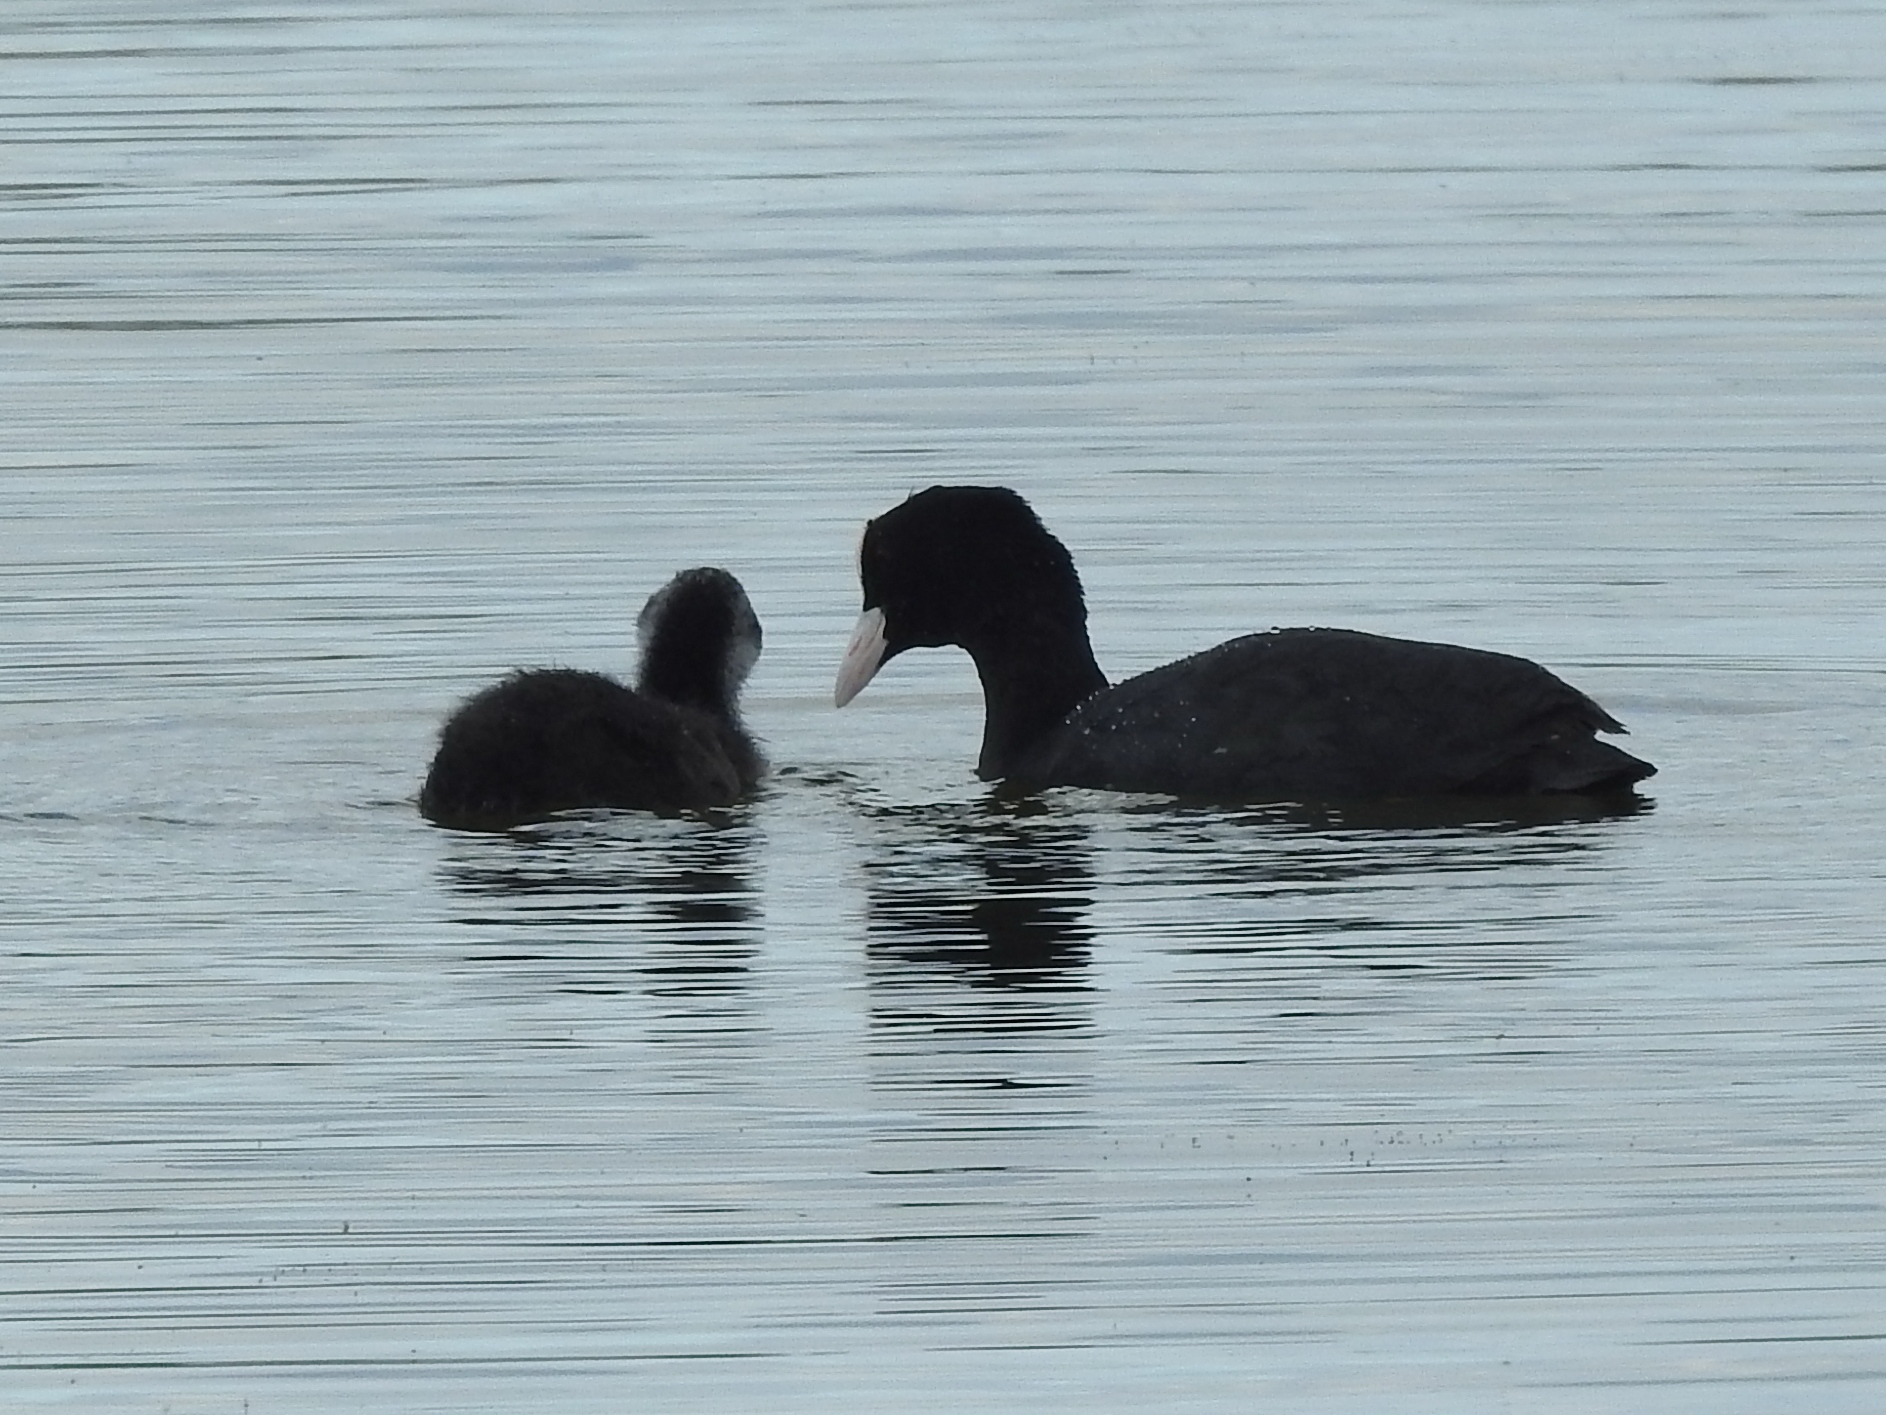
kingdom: Animalia
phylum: Chordata
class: Aves
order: Gruiformes
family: Rallidae
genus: Fulica
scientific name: Fulica atra
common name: Eurasian coot
